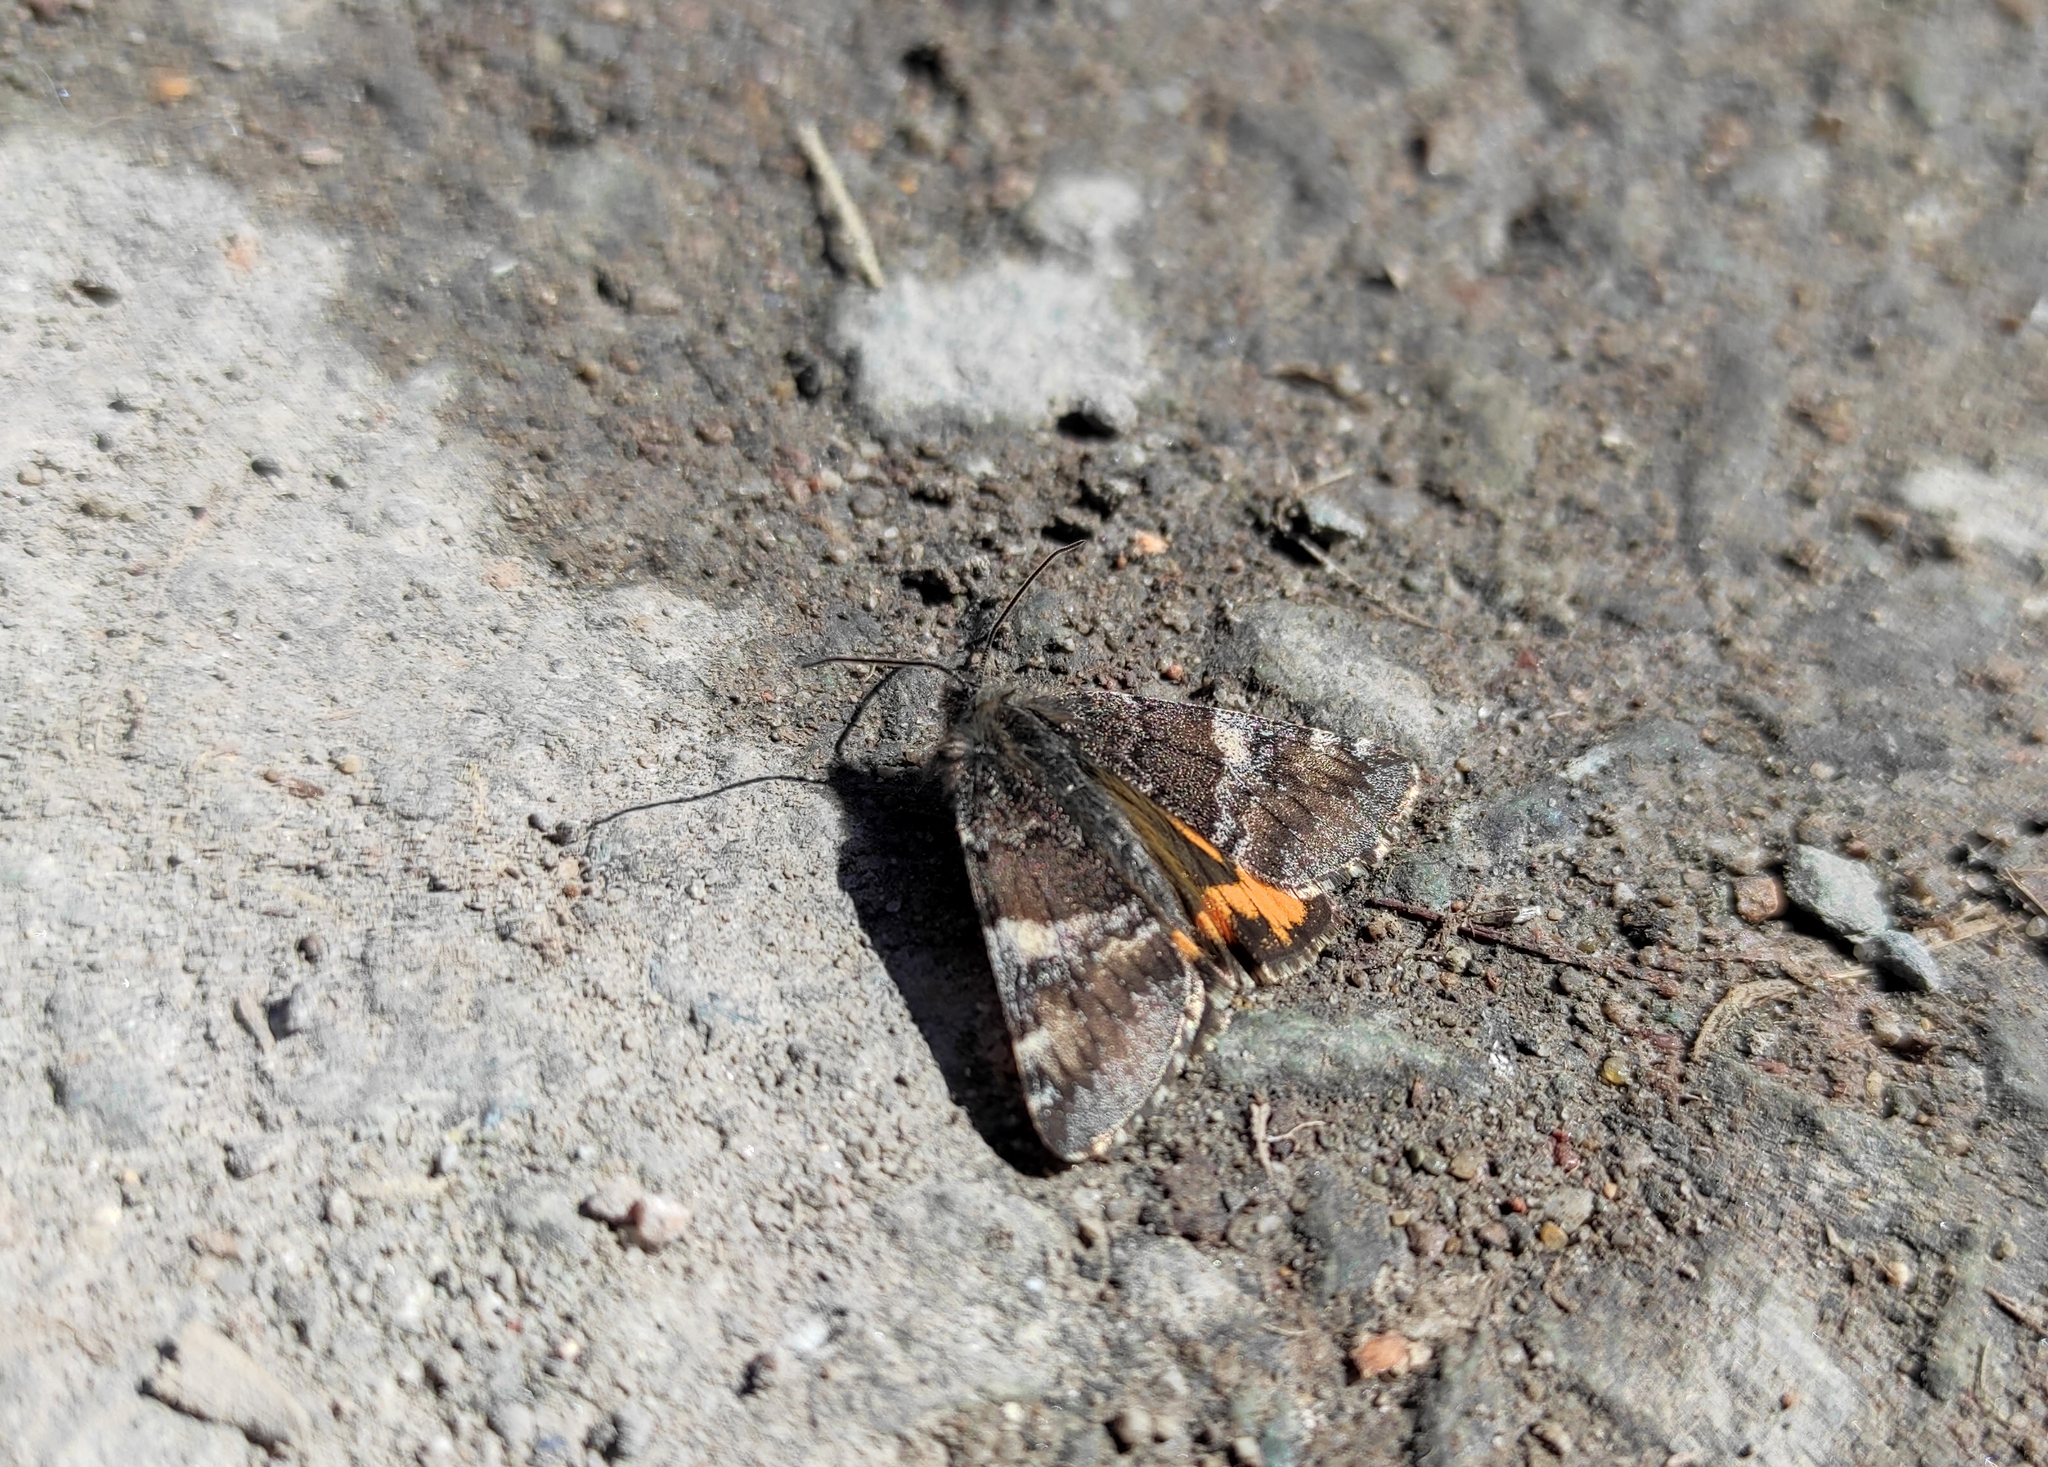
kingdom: Animalia
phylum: Arthropoda
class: Insecta
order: Lepidoptera
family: Geometridae
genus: Archiearis
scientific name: Archiearis parthenias
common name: Orange underwing
